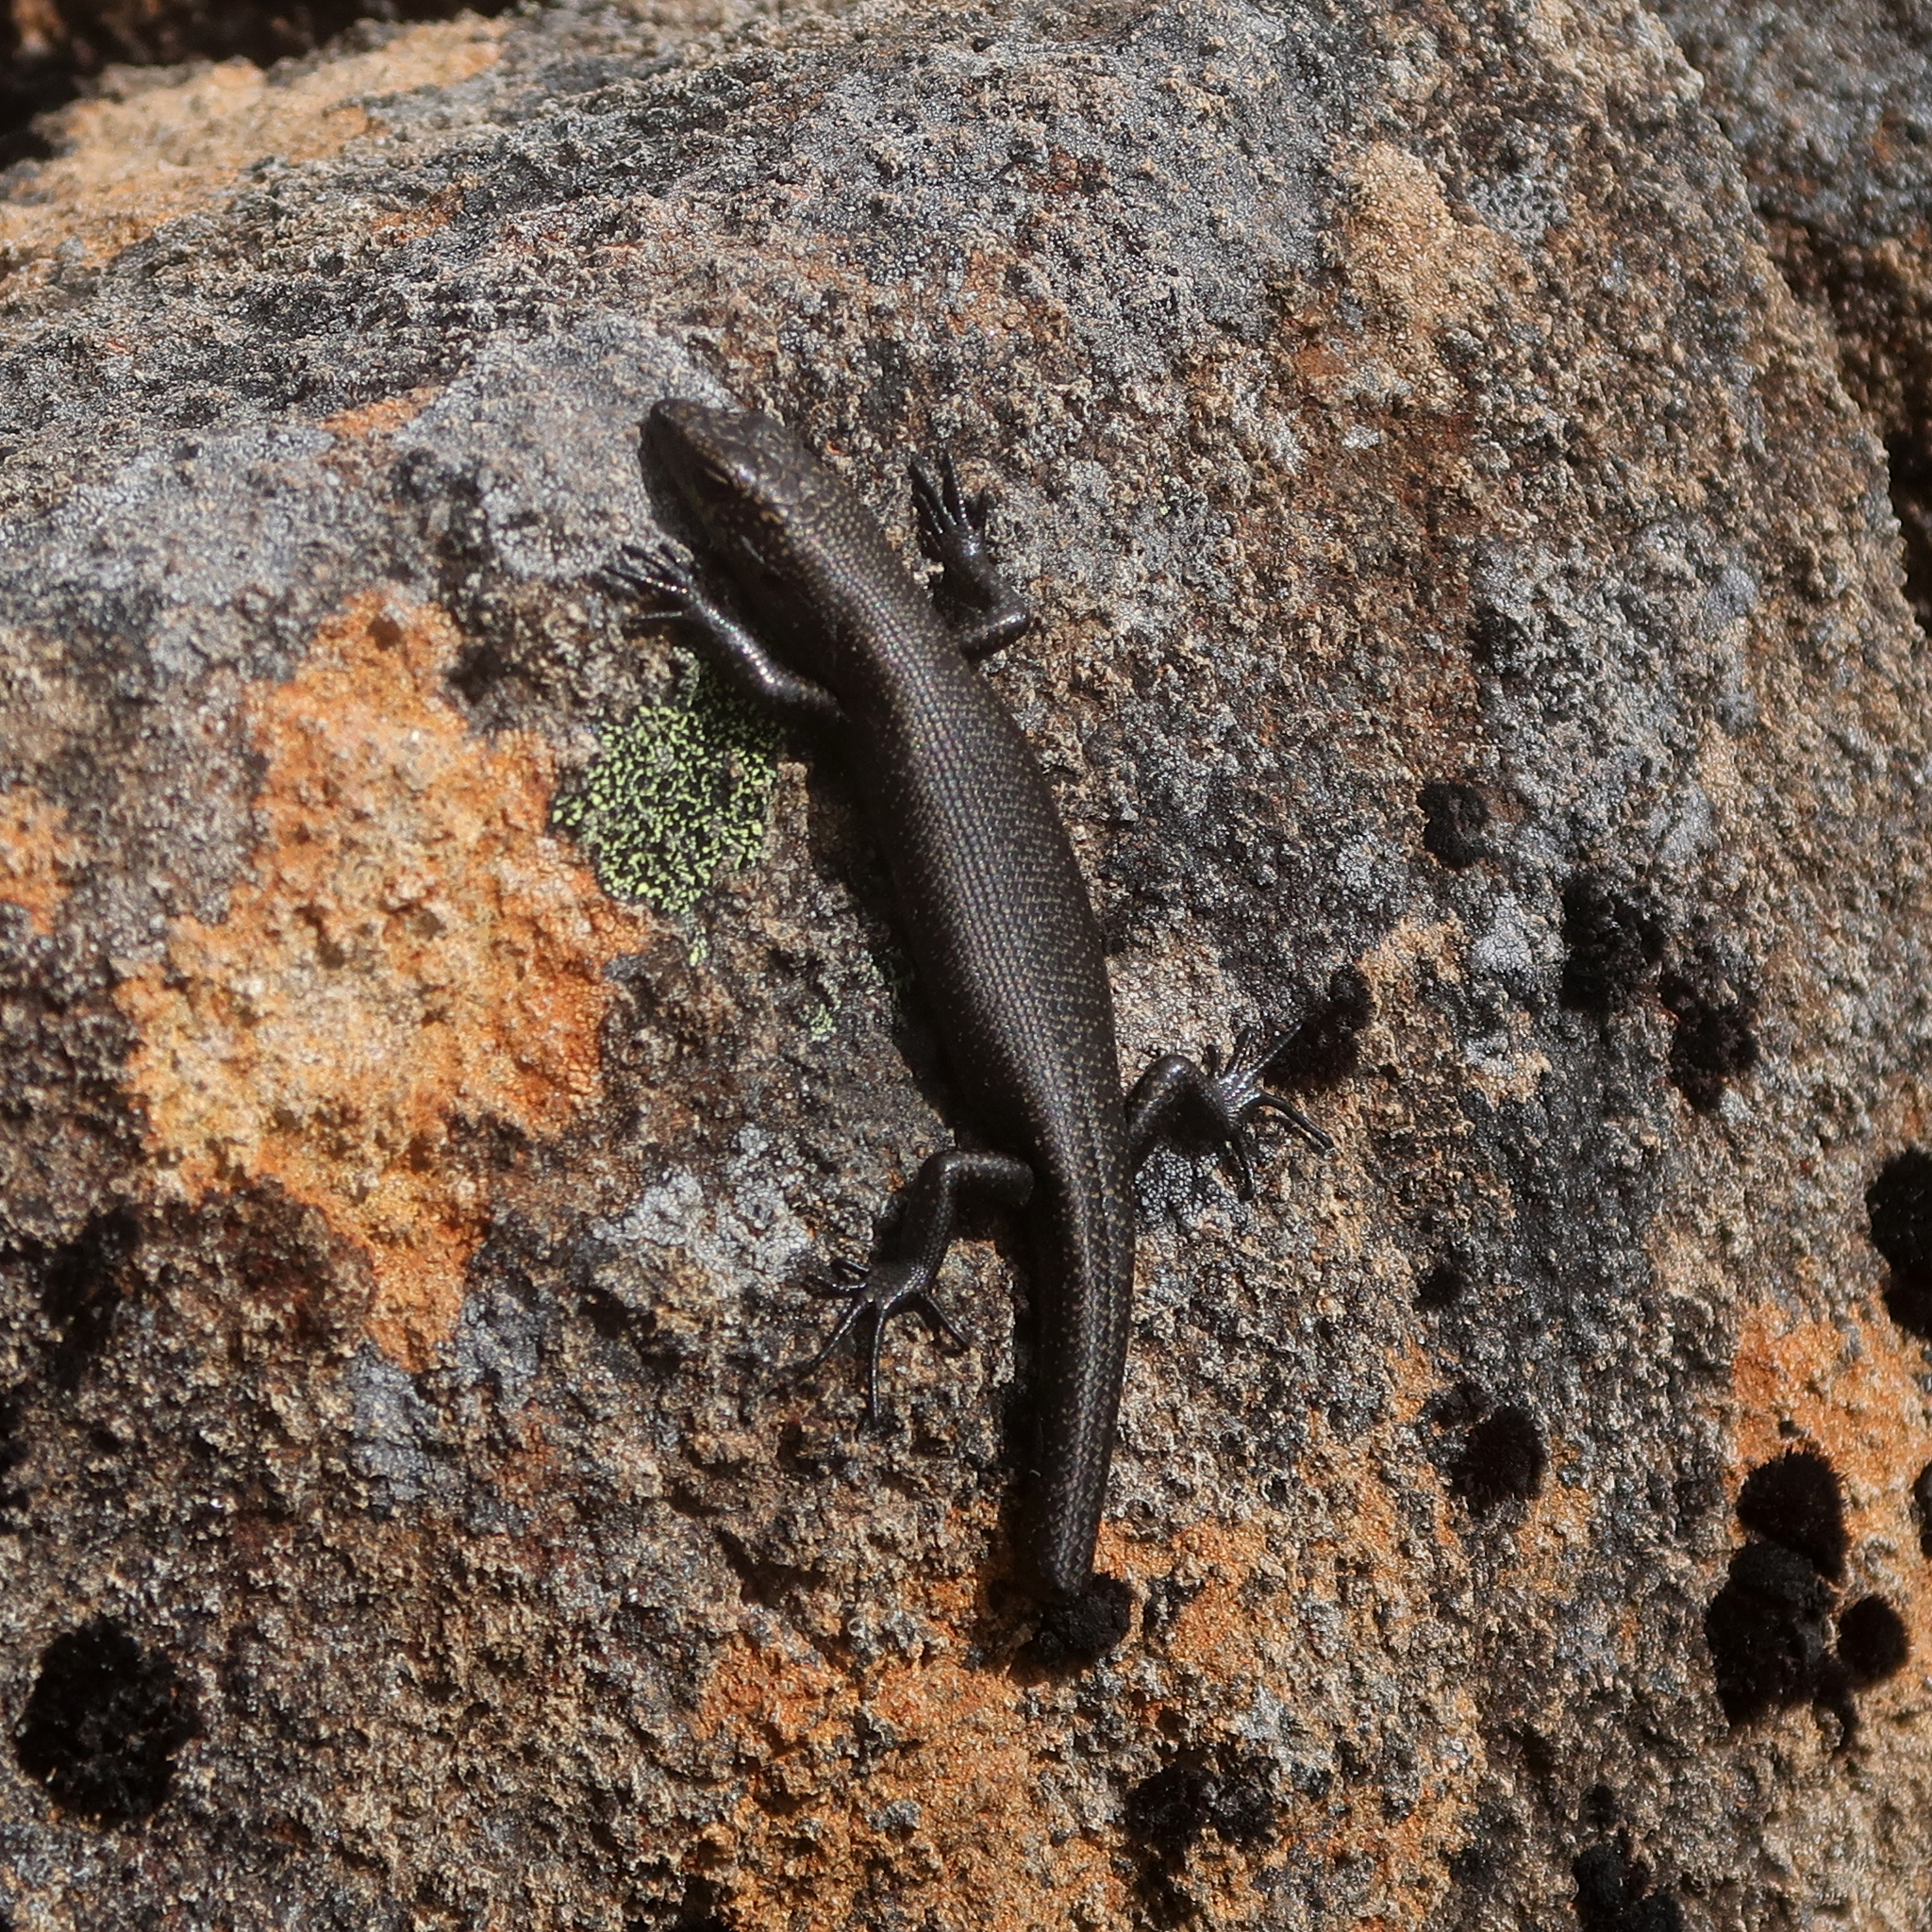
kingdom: Animalia
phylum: Chordata
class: Squamata
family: Scincidae
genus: Carinascincus
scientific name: Carinascincus greeni
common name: Alpine cool-skink
